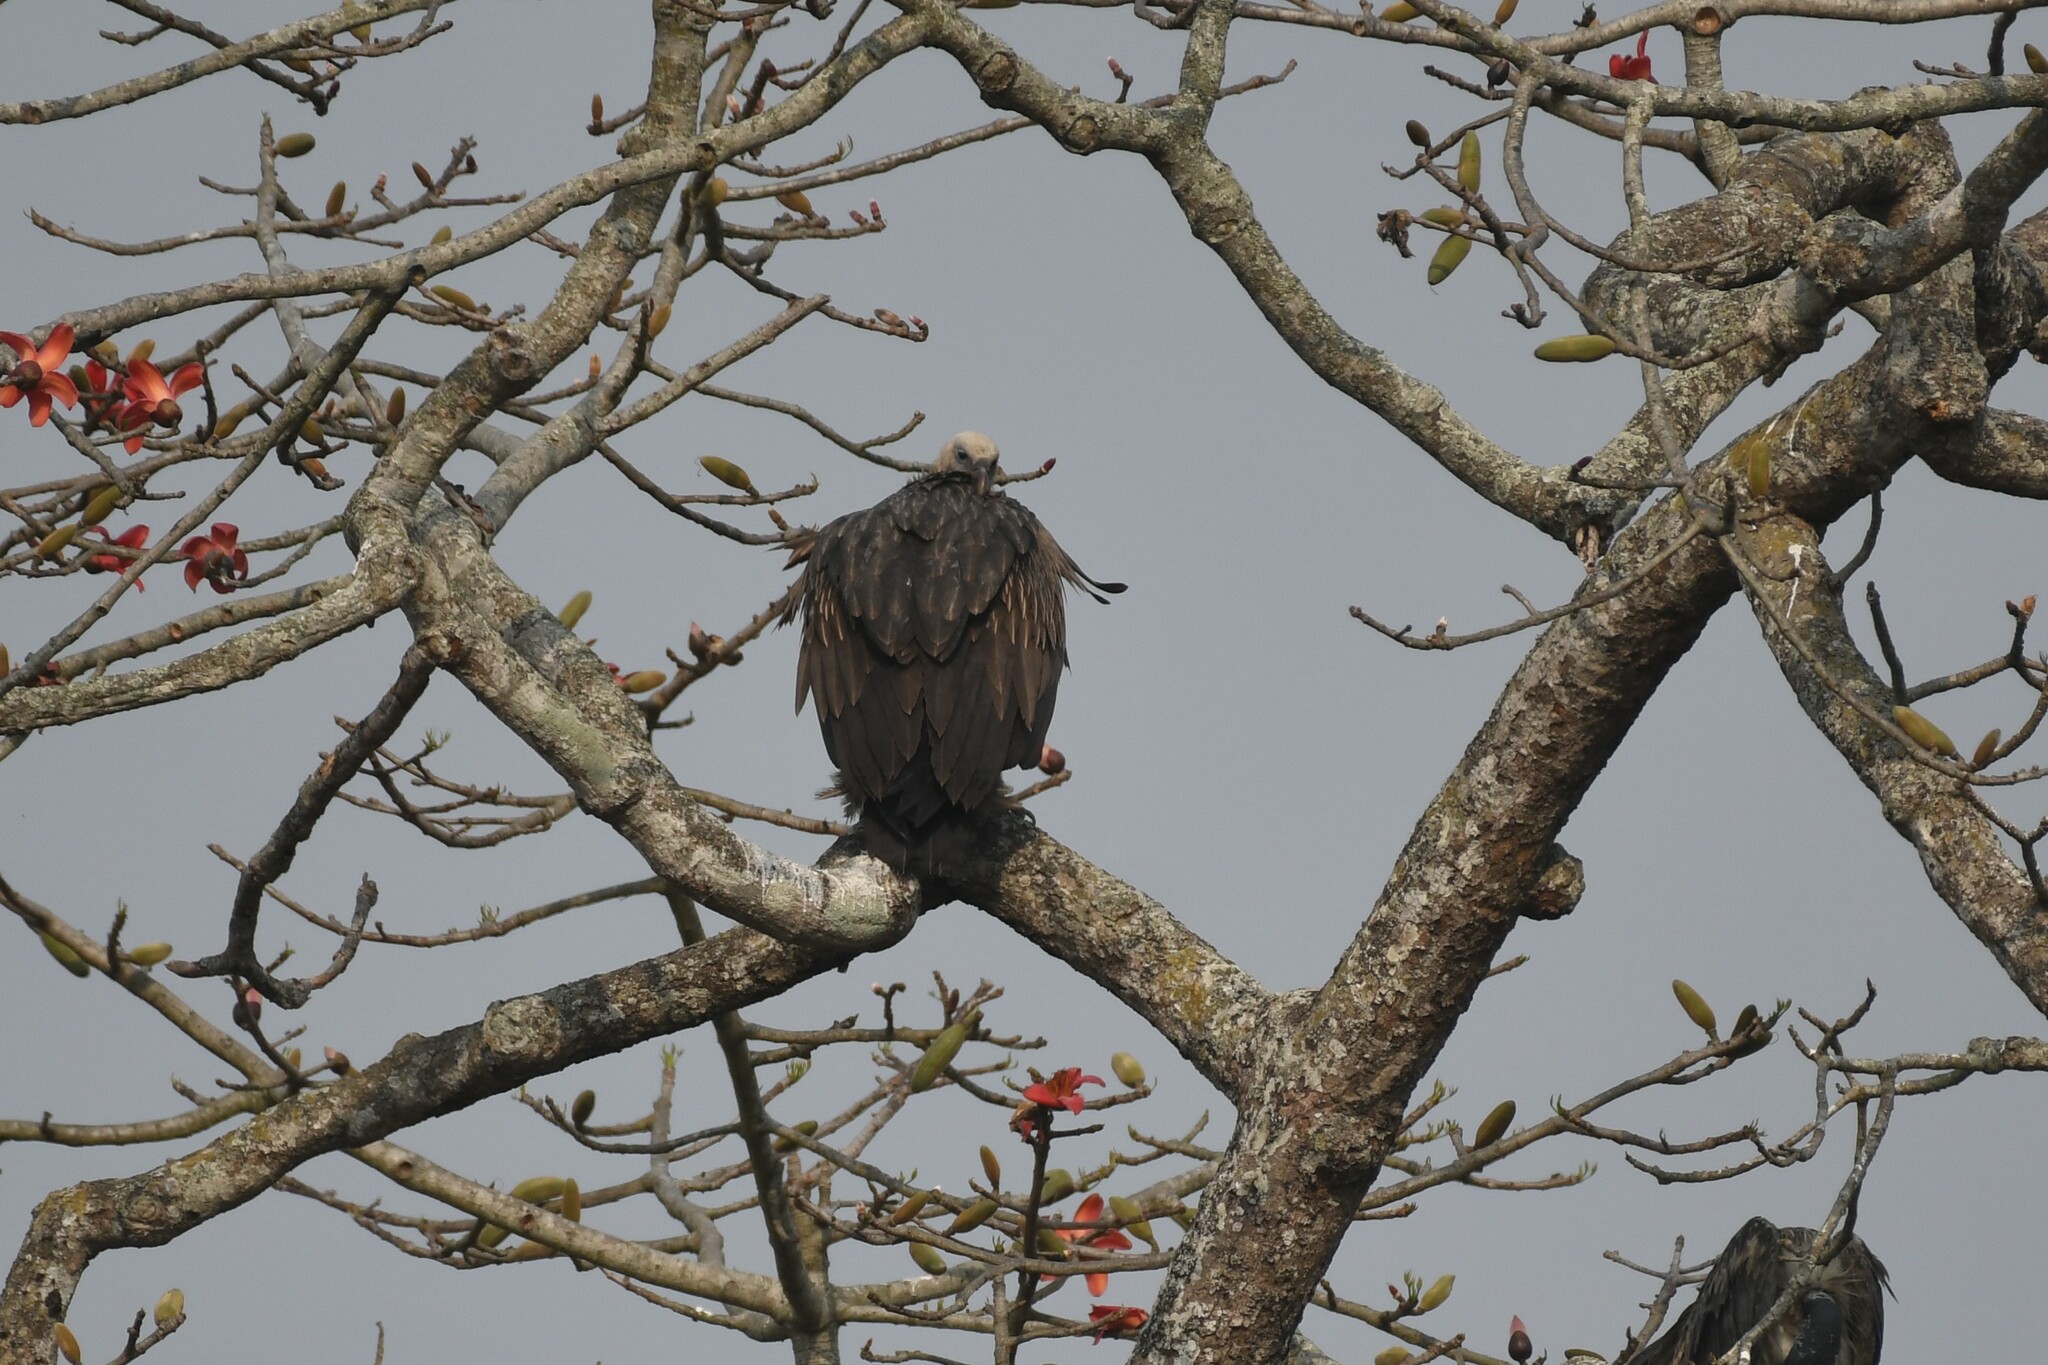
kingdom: Animalia
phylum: Chordata
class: Aves
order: Accipitriformes
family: Accipitridae
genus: Gyps
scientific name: Gyps himalayensis
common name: Himalayan griffon
